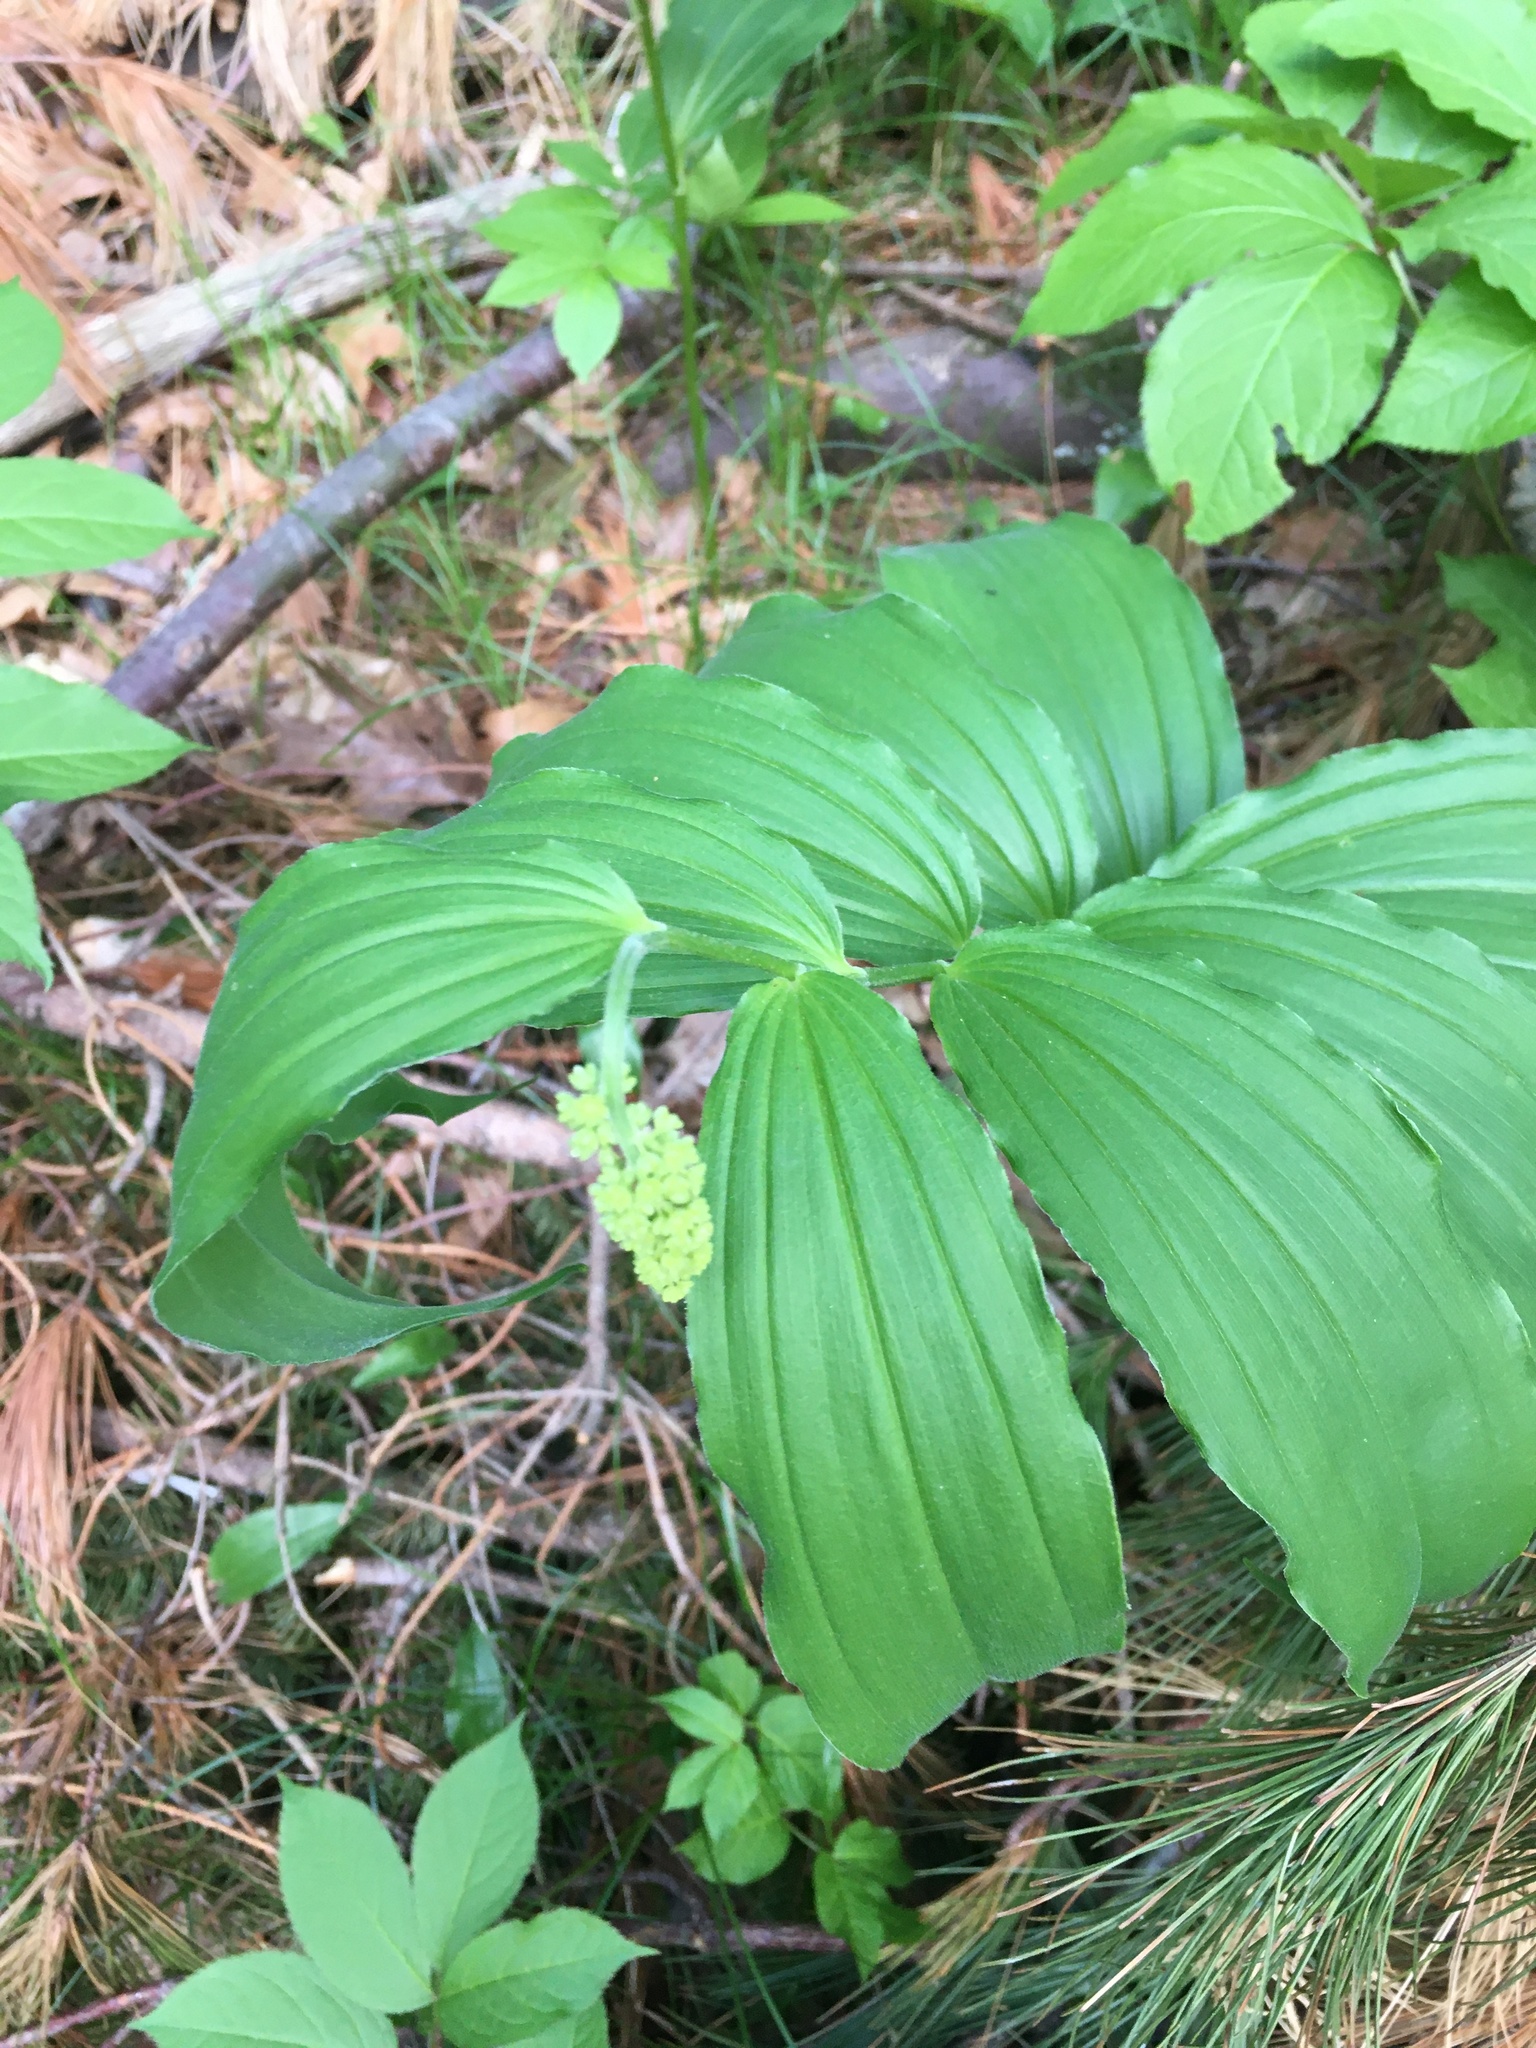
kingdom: Plantae
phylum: Tracheophyta
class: Liliopsida
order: Asparagales
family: Asparagaceae
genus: Maianthemum
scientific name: Maianthemum racemosum
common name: False spikenard
